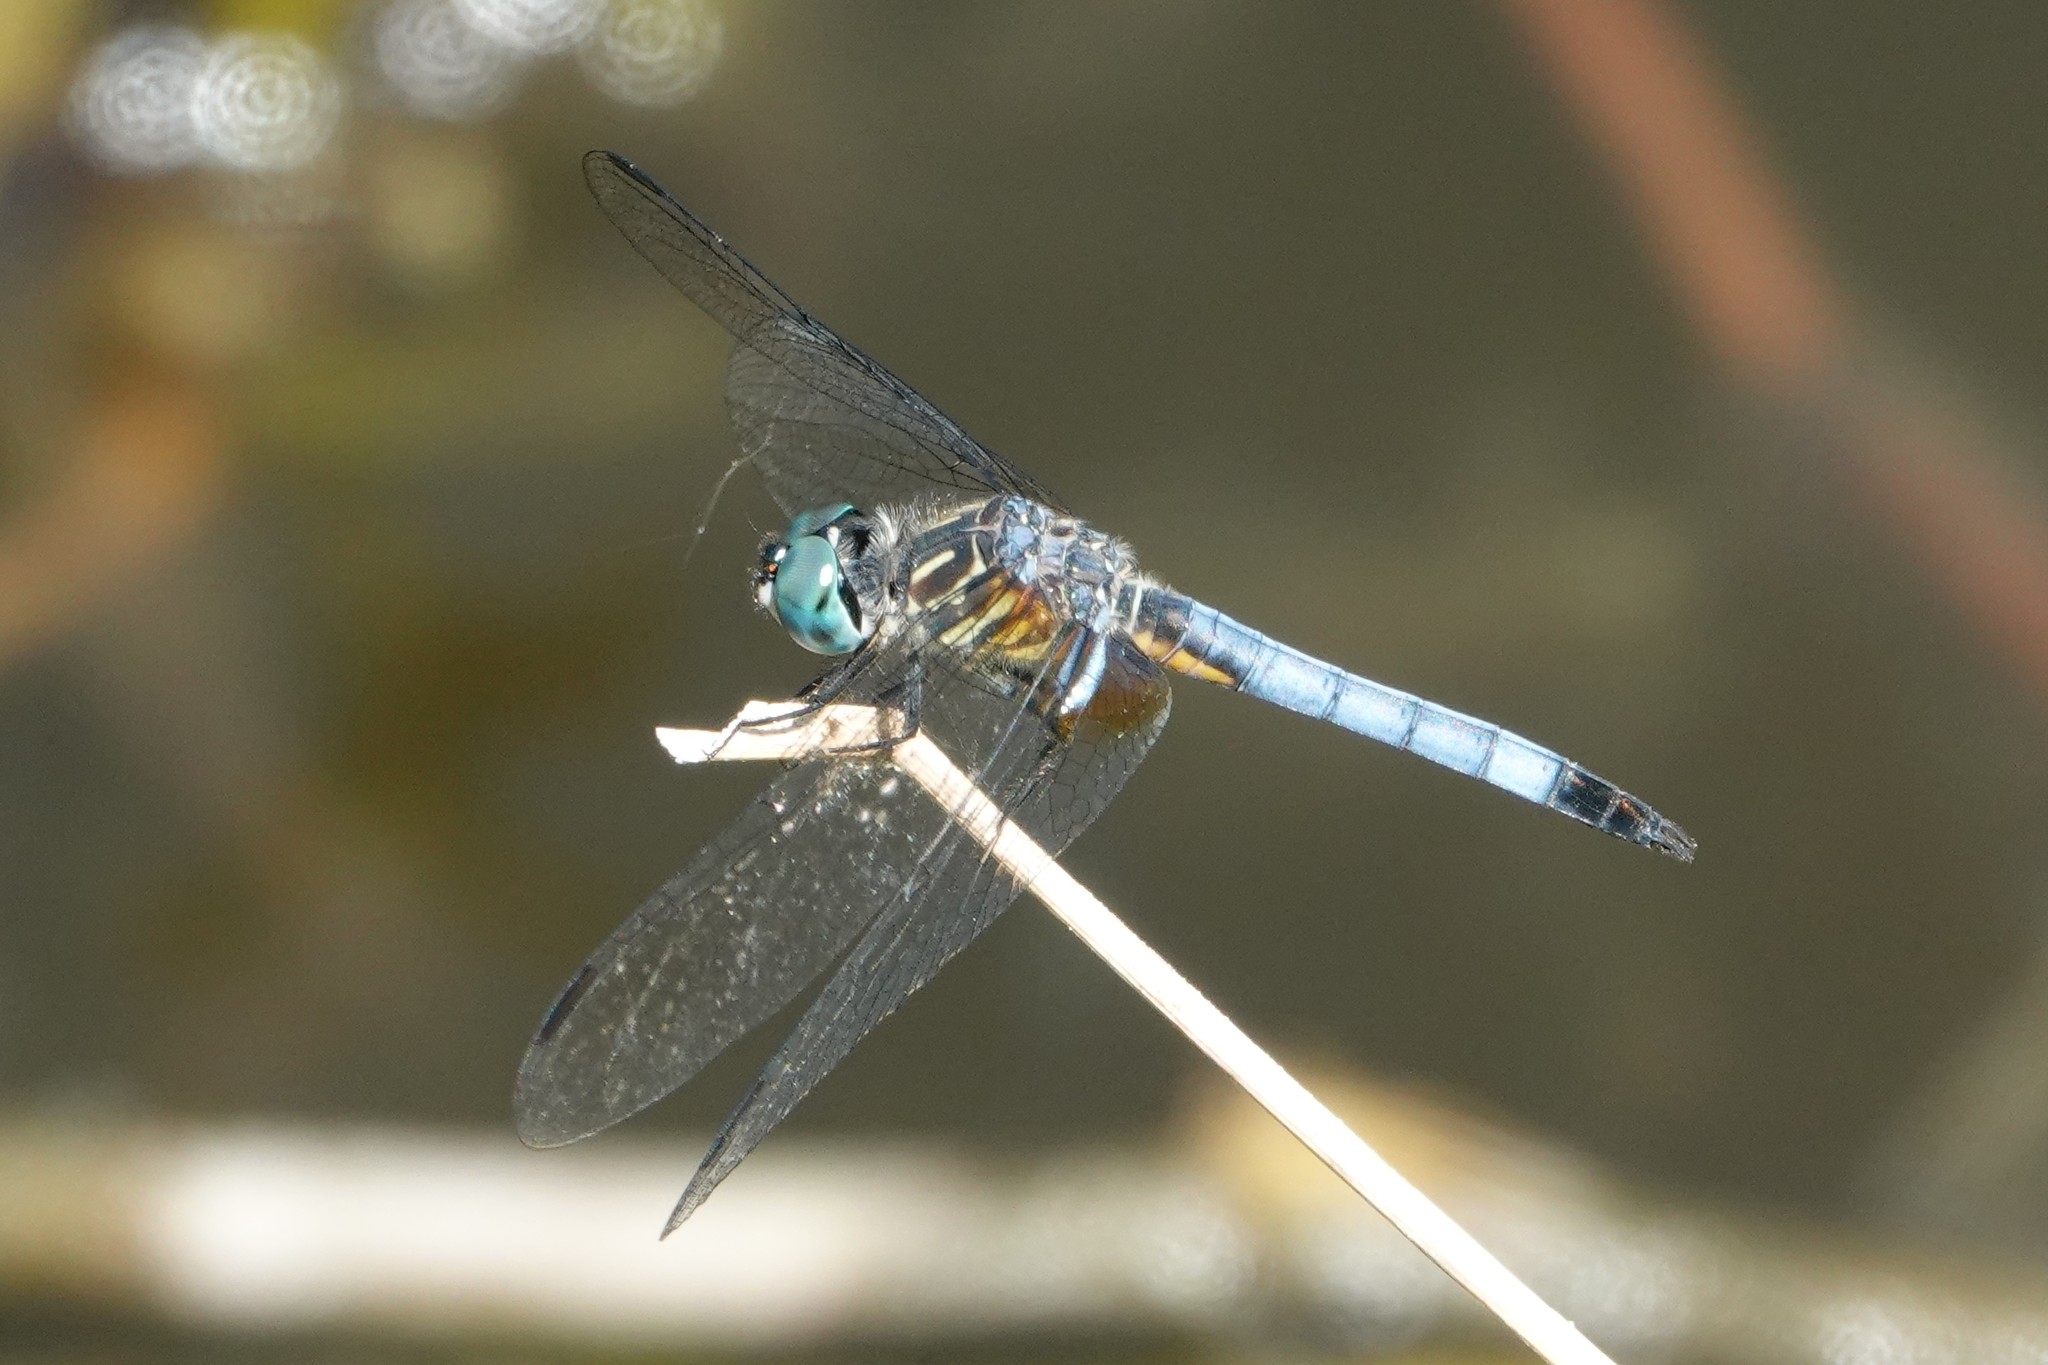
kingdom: Animalia
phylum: Arthropoda
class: Insecta
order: Odonata
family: Libellulidae
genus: Pachydiplax
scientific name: Pachydiplax longipennis
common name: Blue dasher
